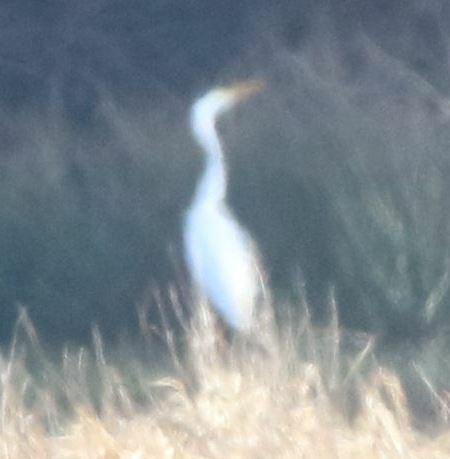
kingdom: Animalia
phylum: Chordata
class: Aves
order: Pelecaniformes
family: Ardeidae
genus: Ardea
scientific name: Ardea alba
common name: Great egret
